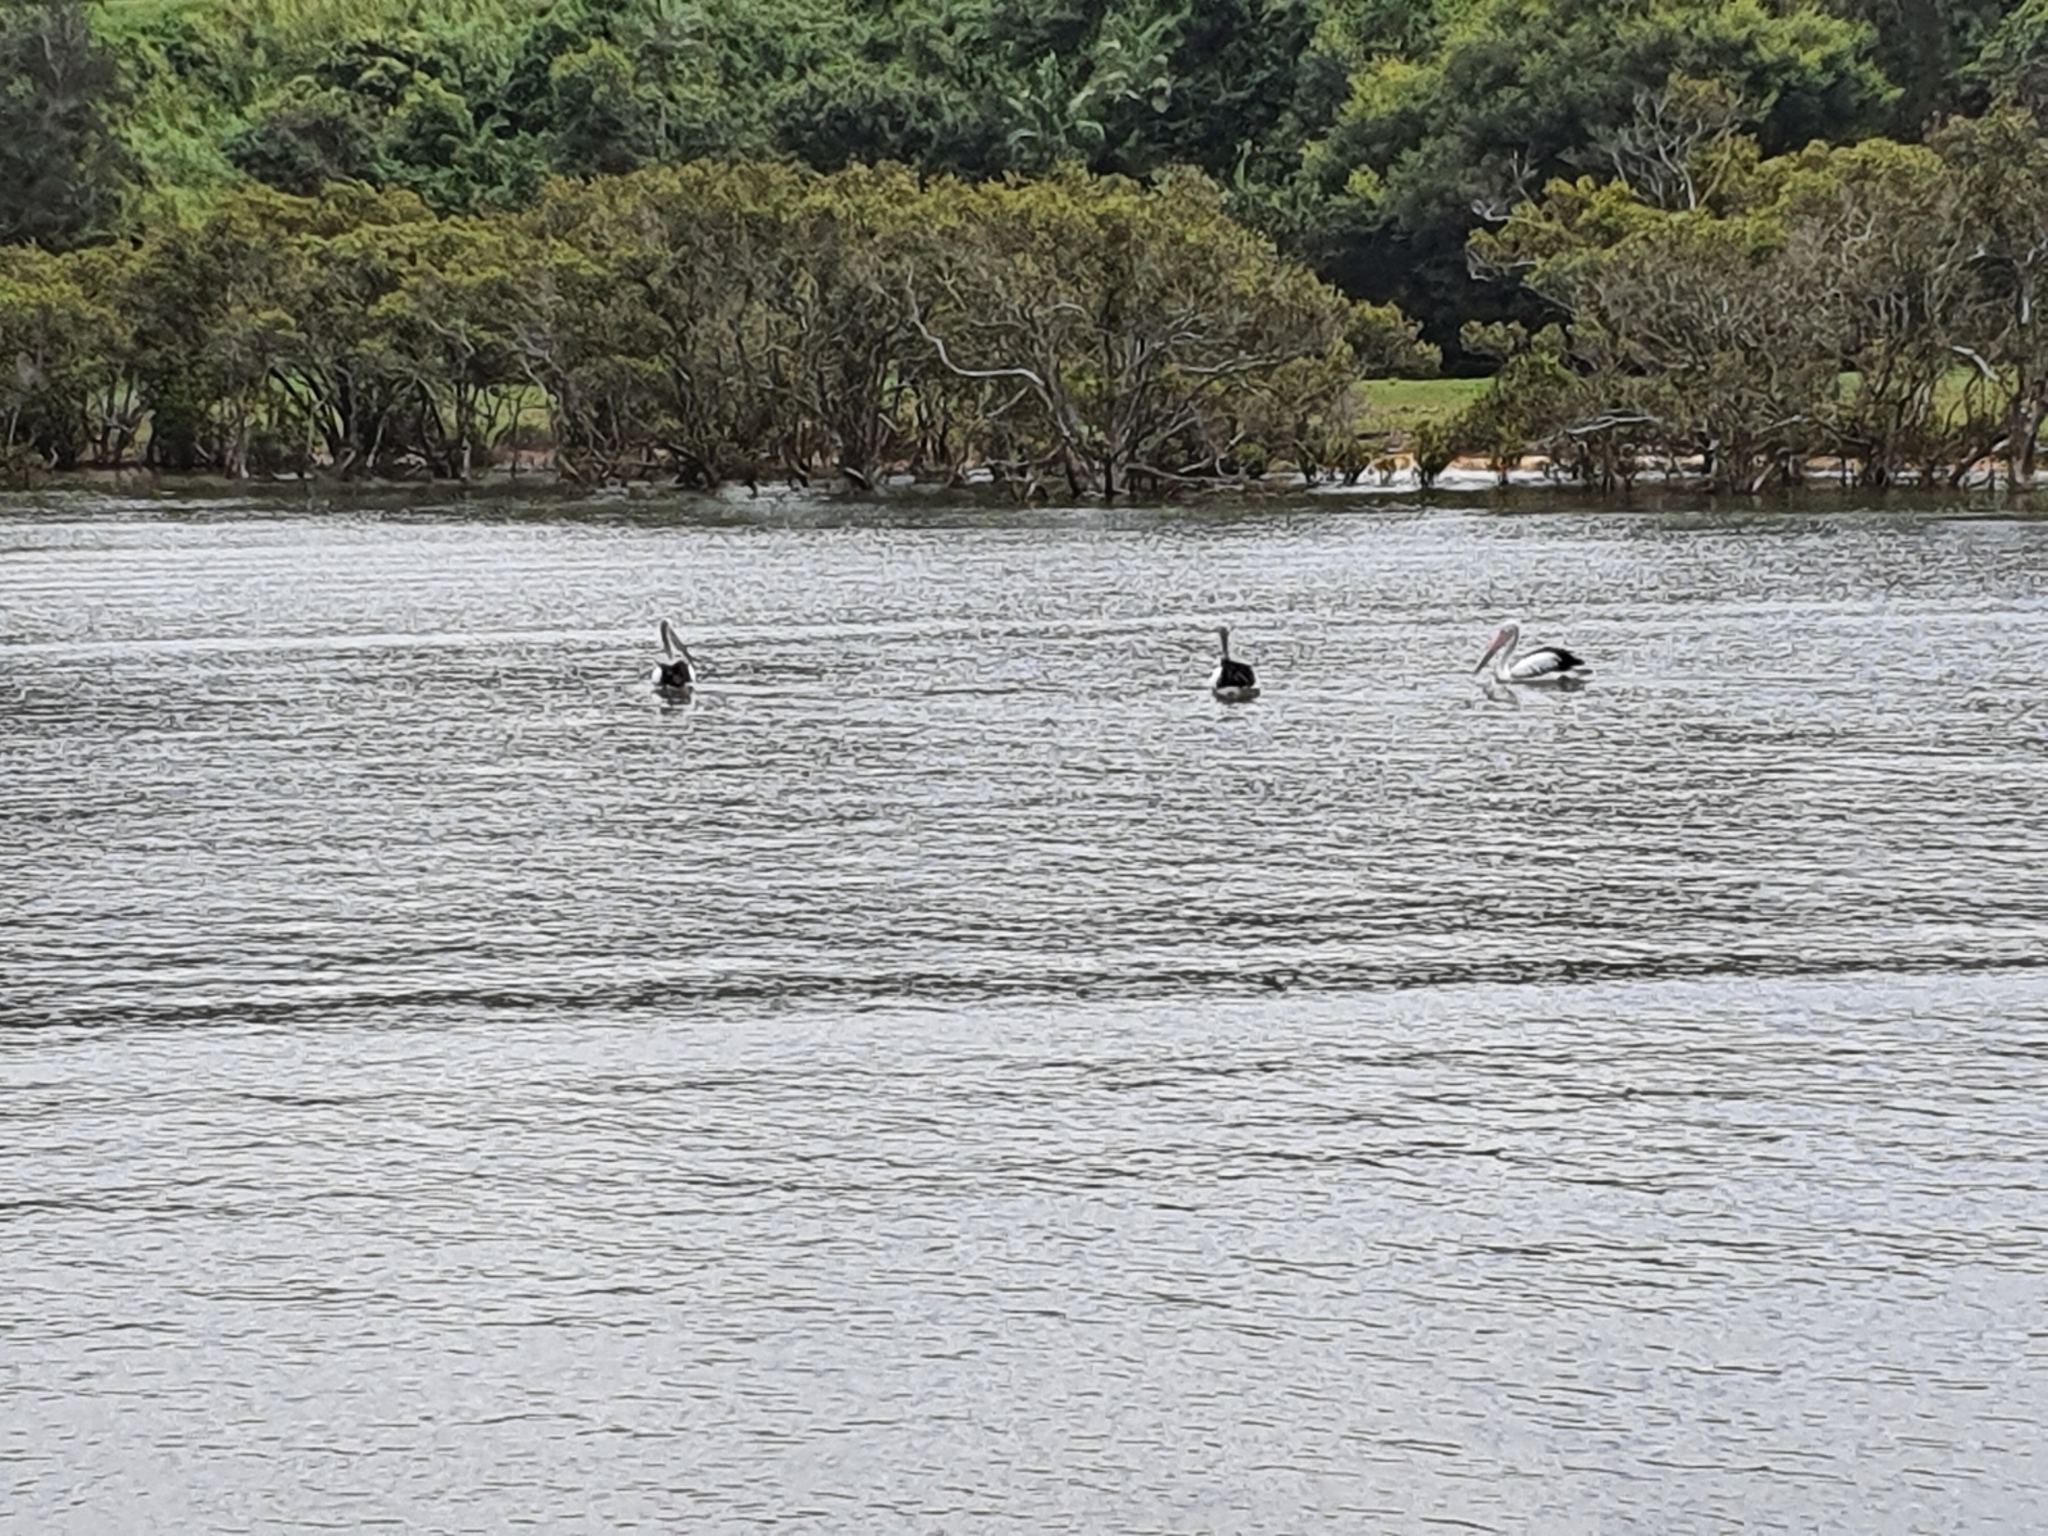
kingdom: Animalia
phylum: Chordata
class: Aves
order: Pelecaniformes
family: Pelecanidae
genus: Pelecanus
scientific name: Pelecanus conspicillatus
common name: Australian pelican
